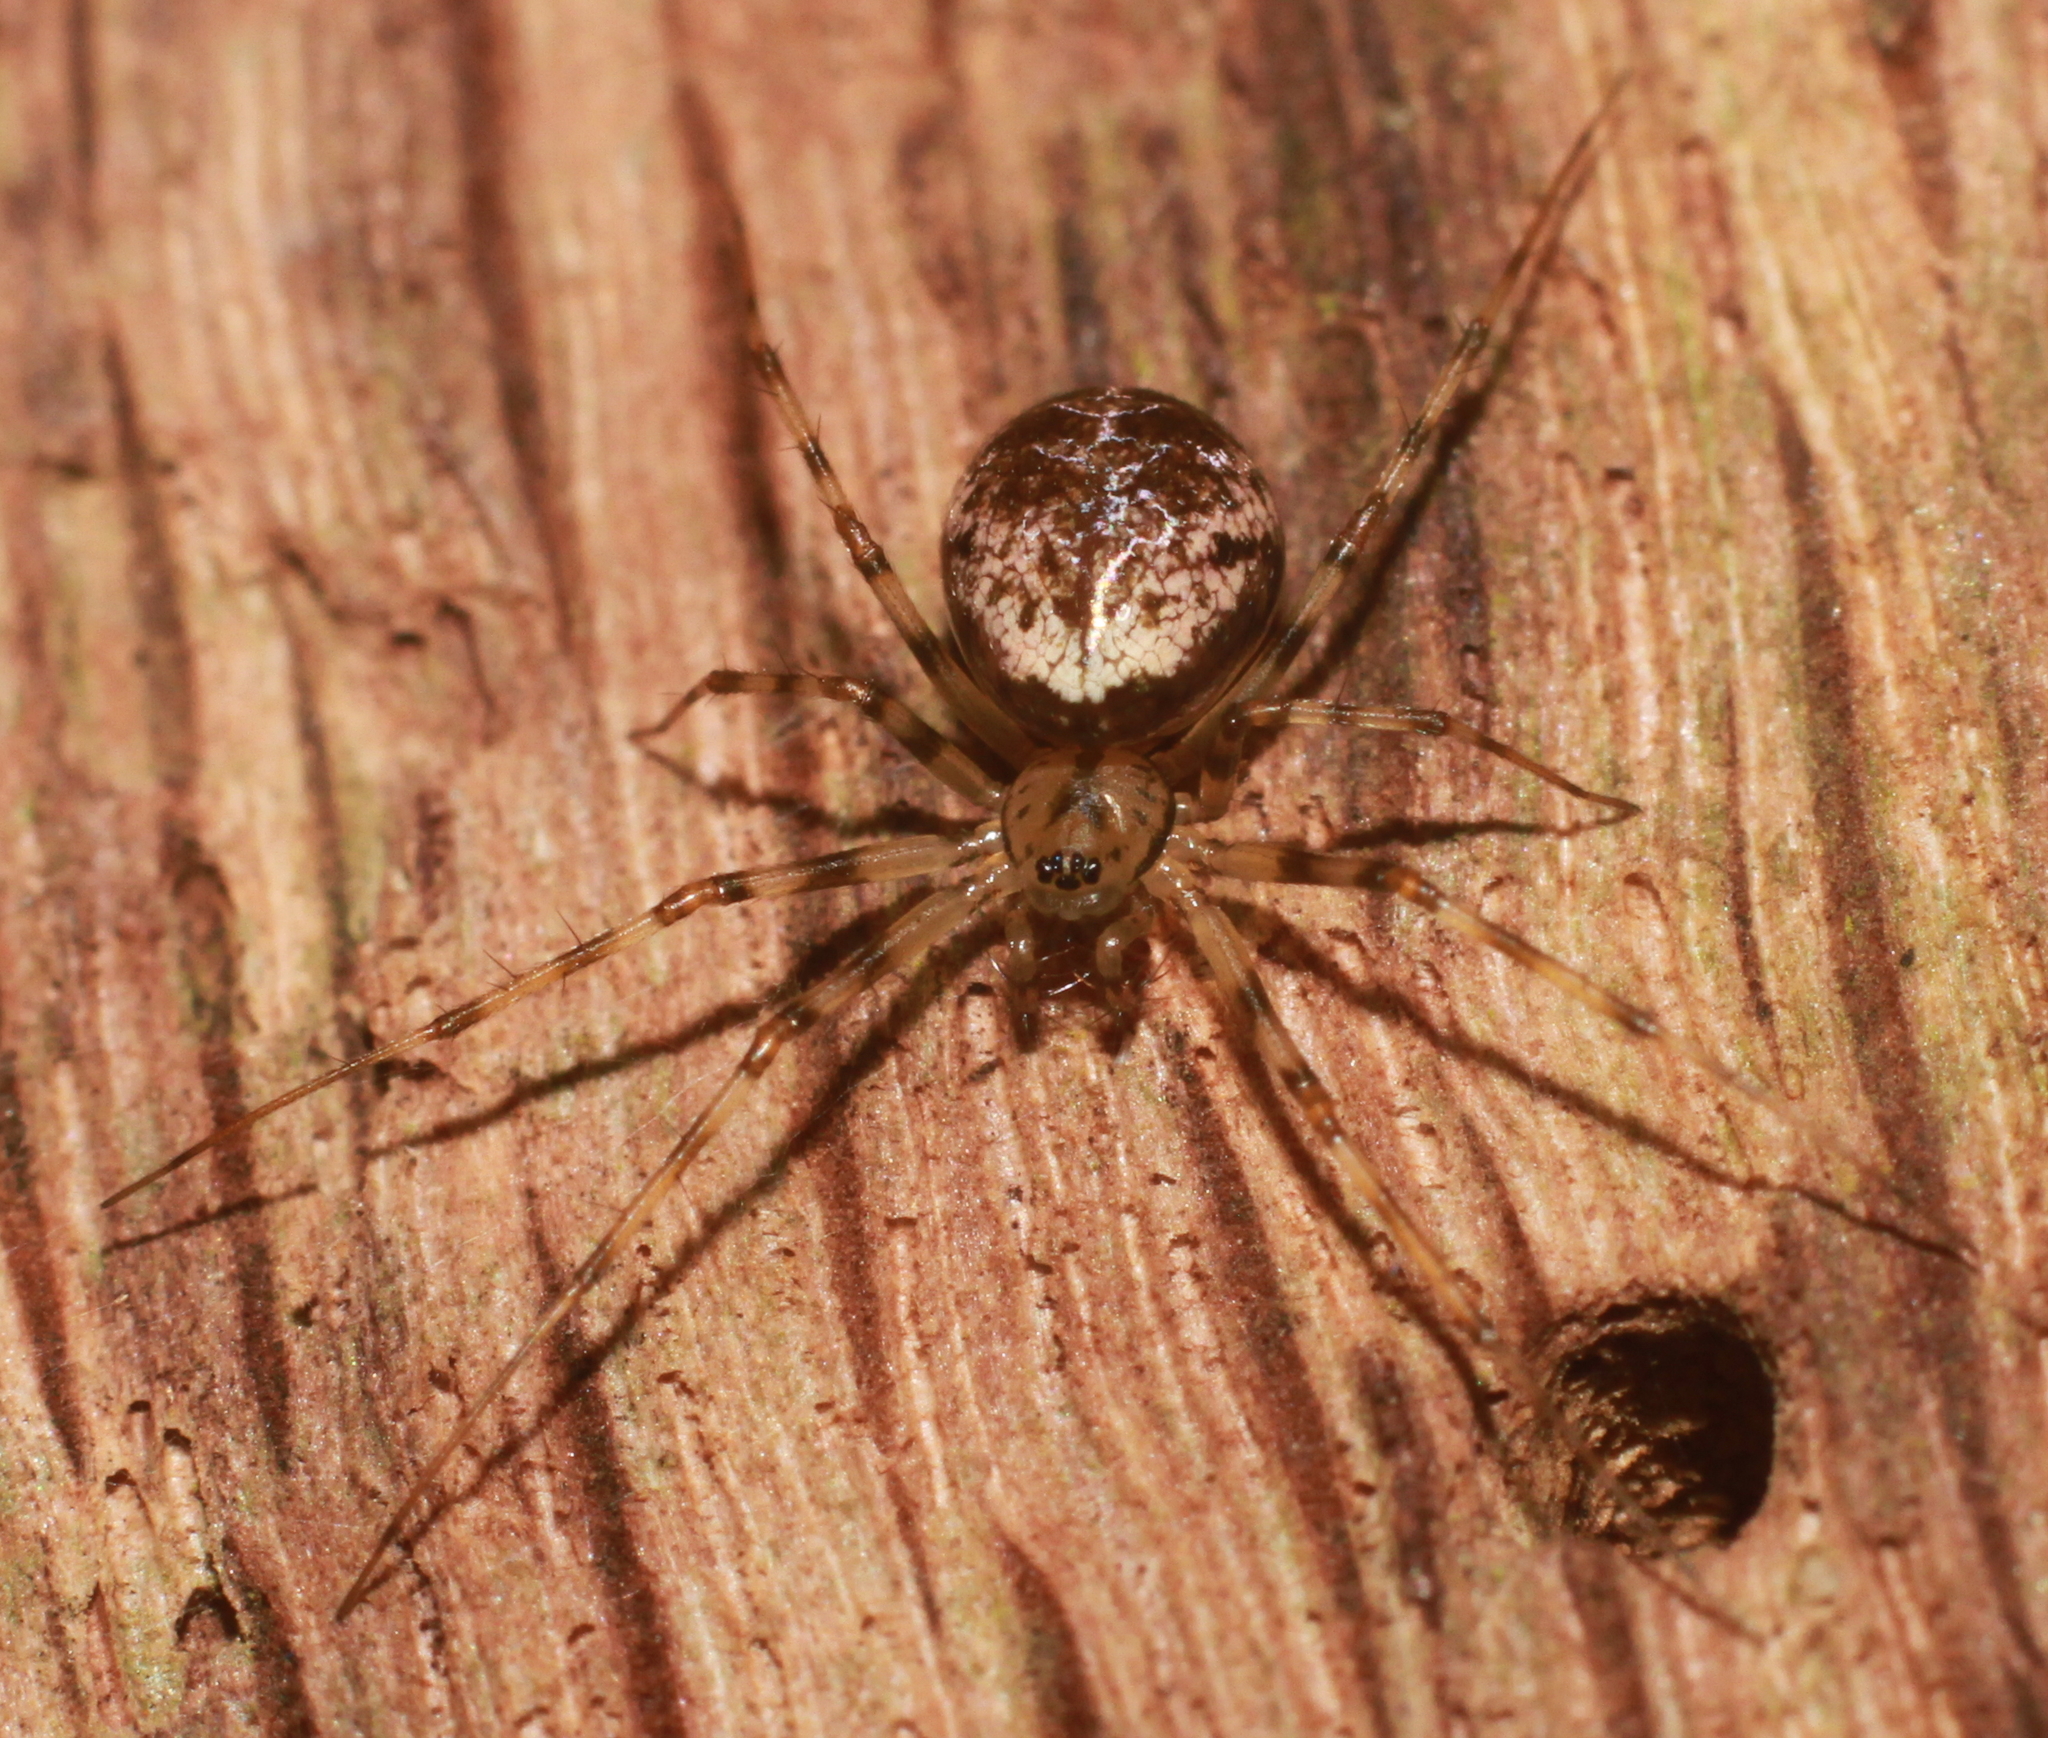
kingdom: Animalia
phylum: Arthropoda
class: Arachnida
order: Araneae
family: Linyphiidae
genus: Drapetisca
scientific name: Drapetisca socialis
